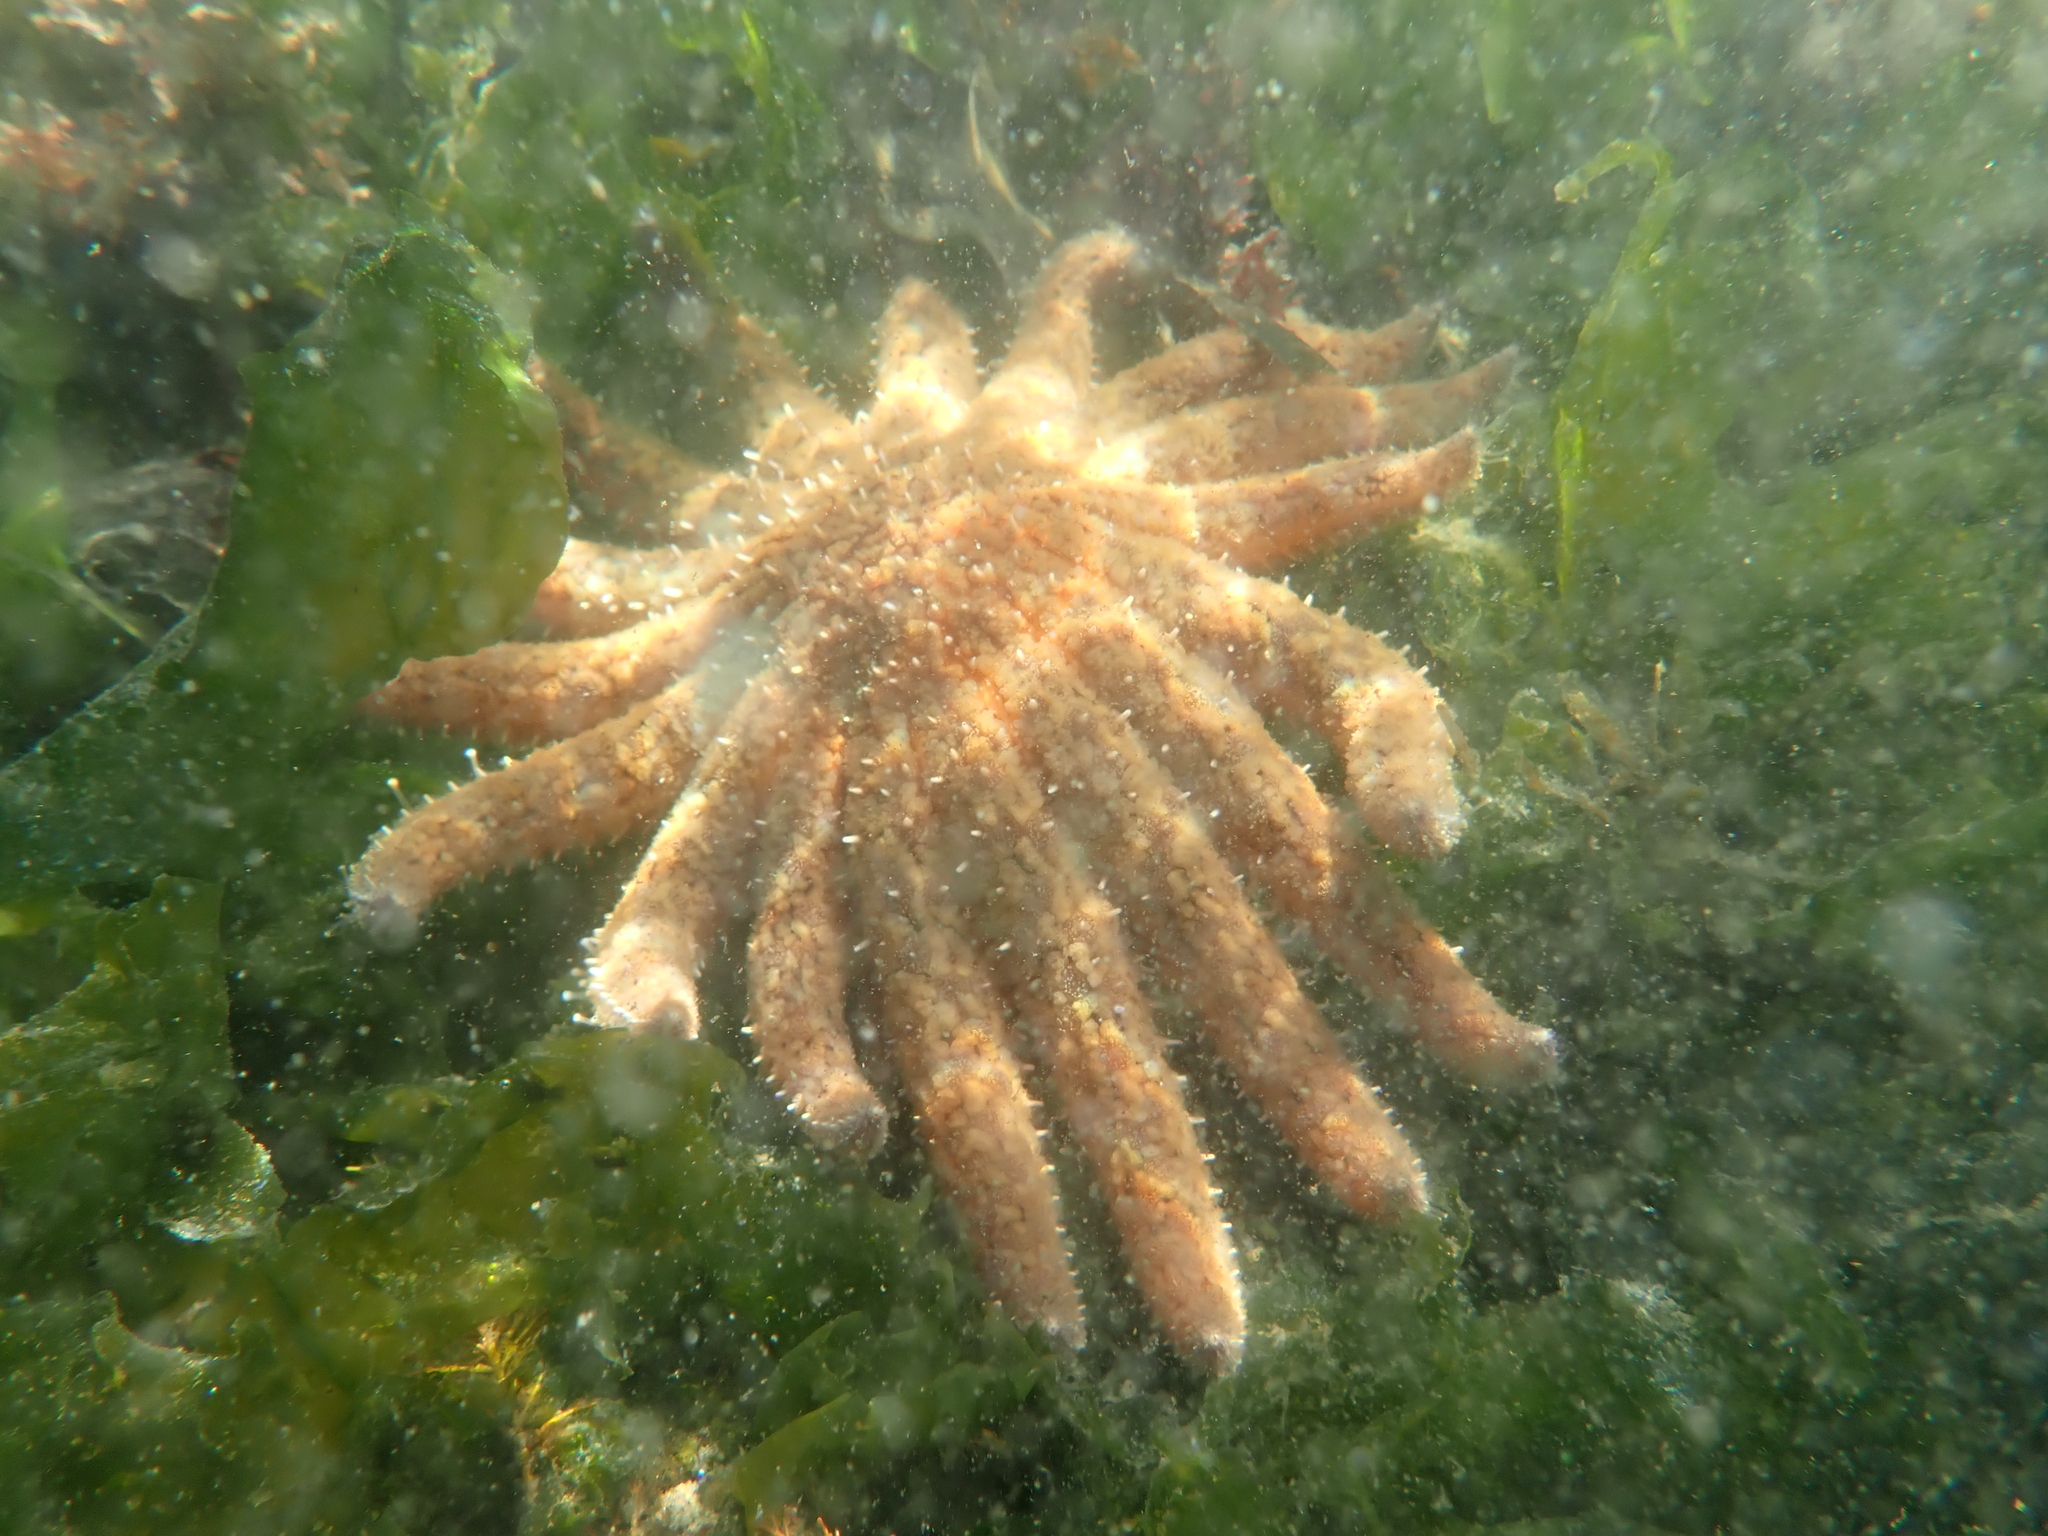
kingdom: Animalia
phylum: Echinodermata
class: Asteroidea
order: Forcipulatida
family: Asteriidae
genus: Pycnopodia
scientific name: Pycnopodia helianthoides
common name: Rag mop
